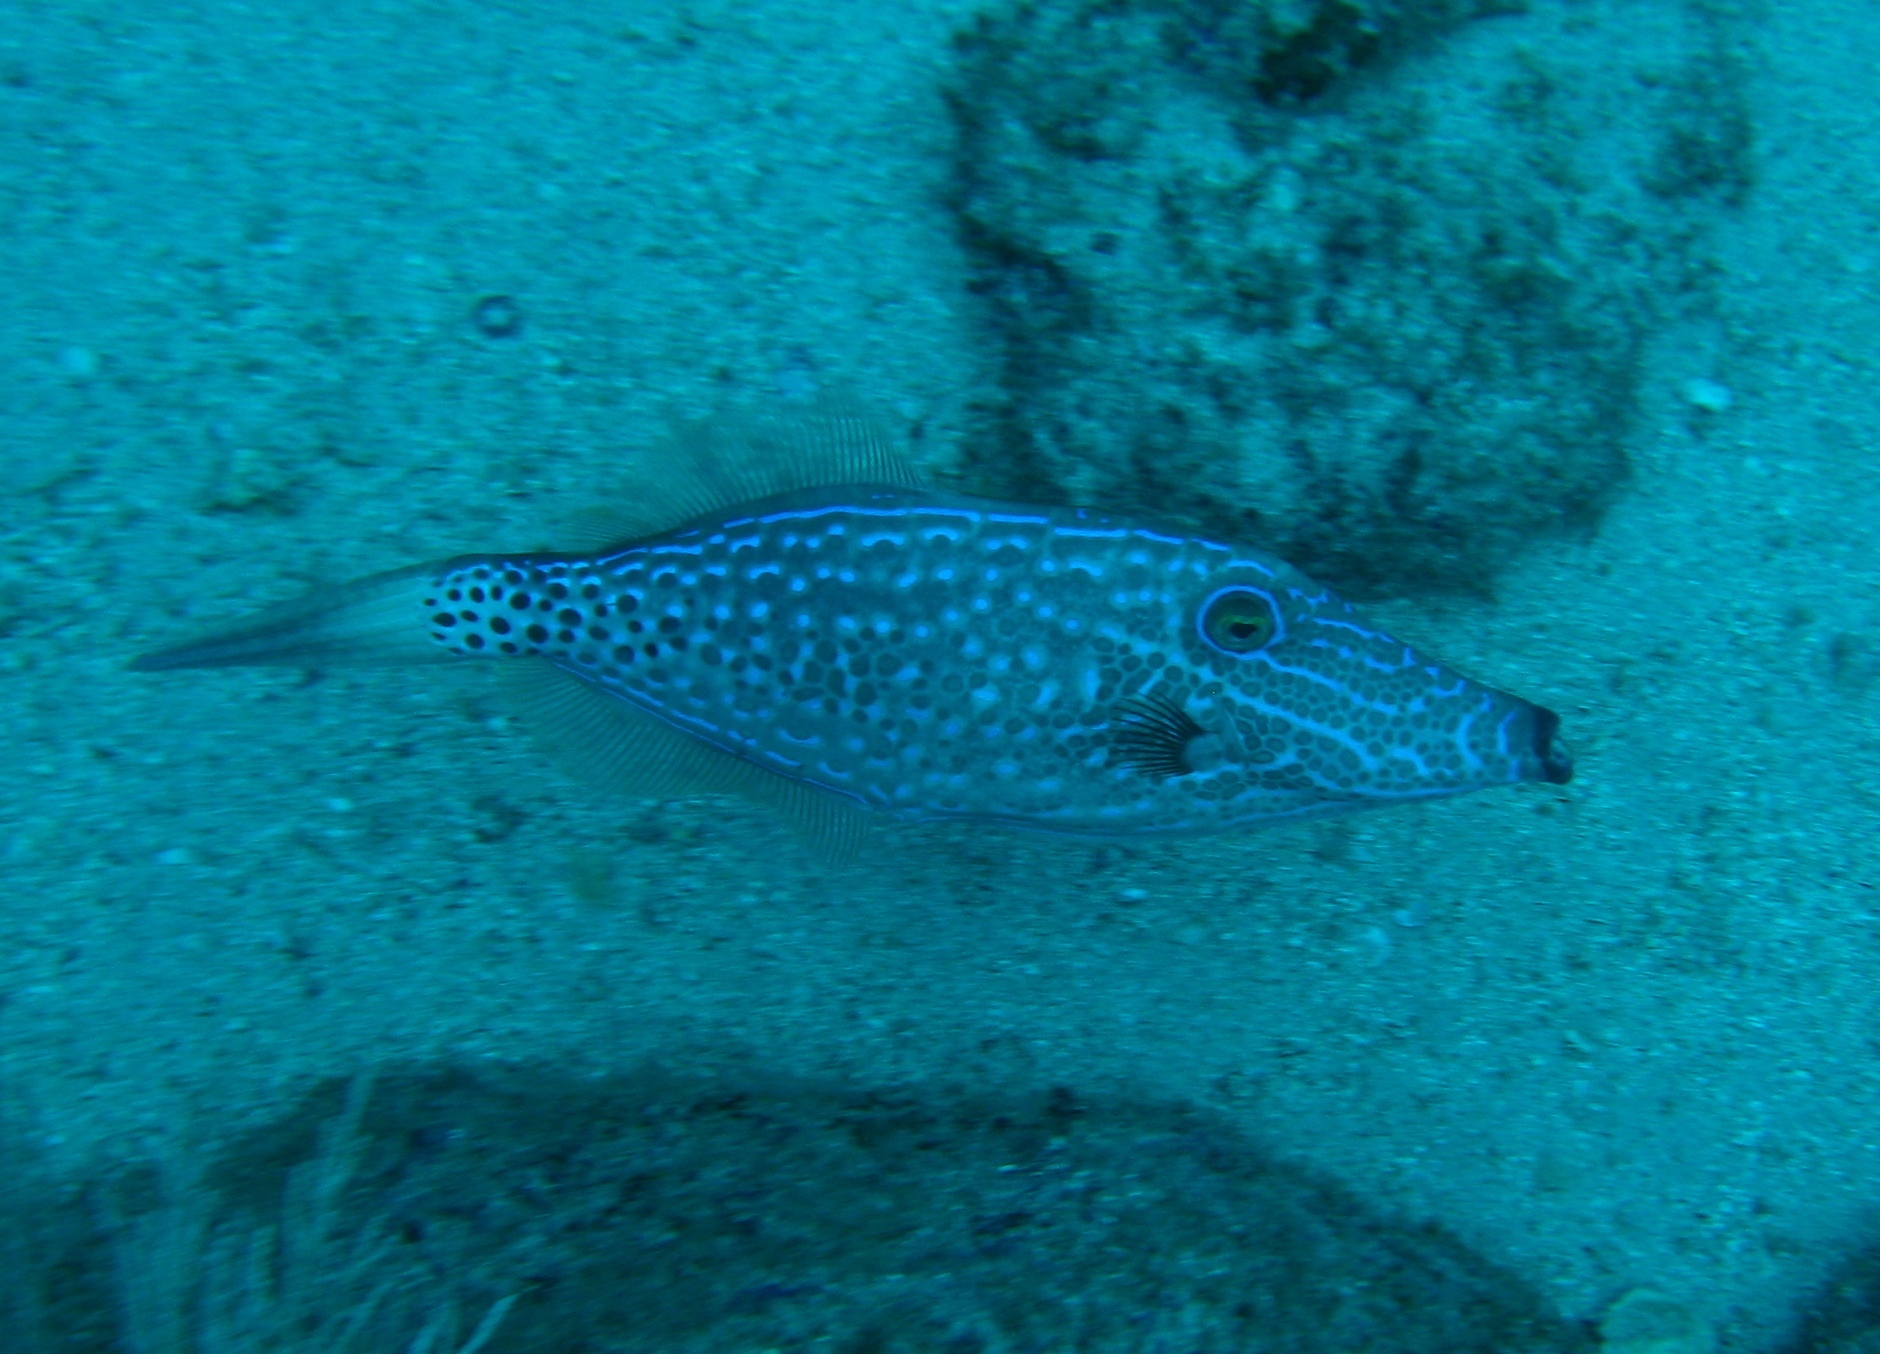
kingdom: Animalia
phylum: Chordata
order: Tetraodontiformes
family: Monacanthidae
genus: Aluterus
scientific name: Aluterus scriptus
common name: Scribbled leatherjacket filefish
